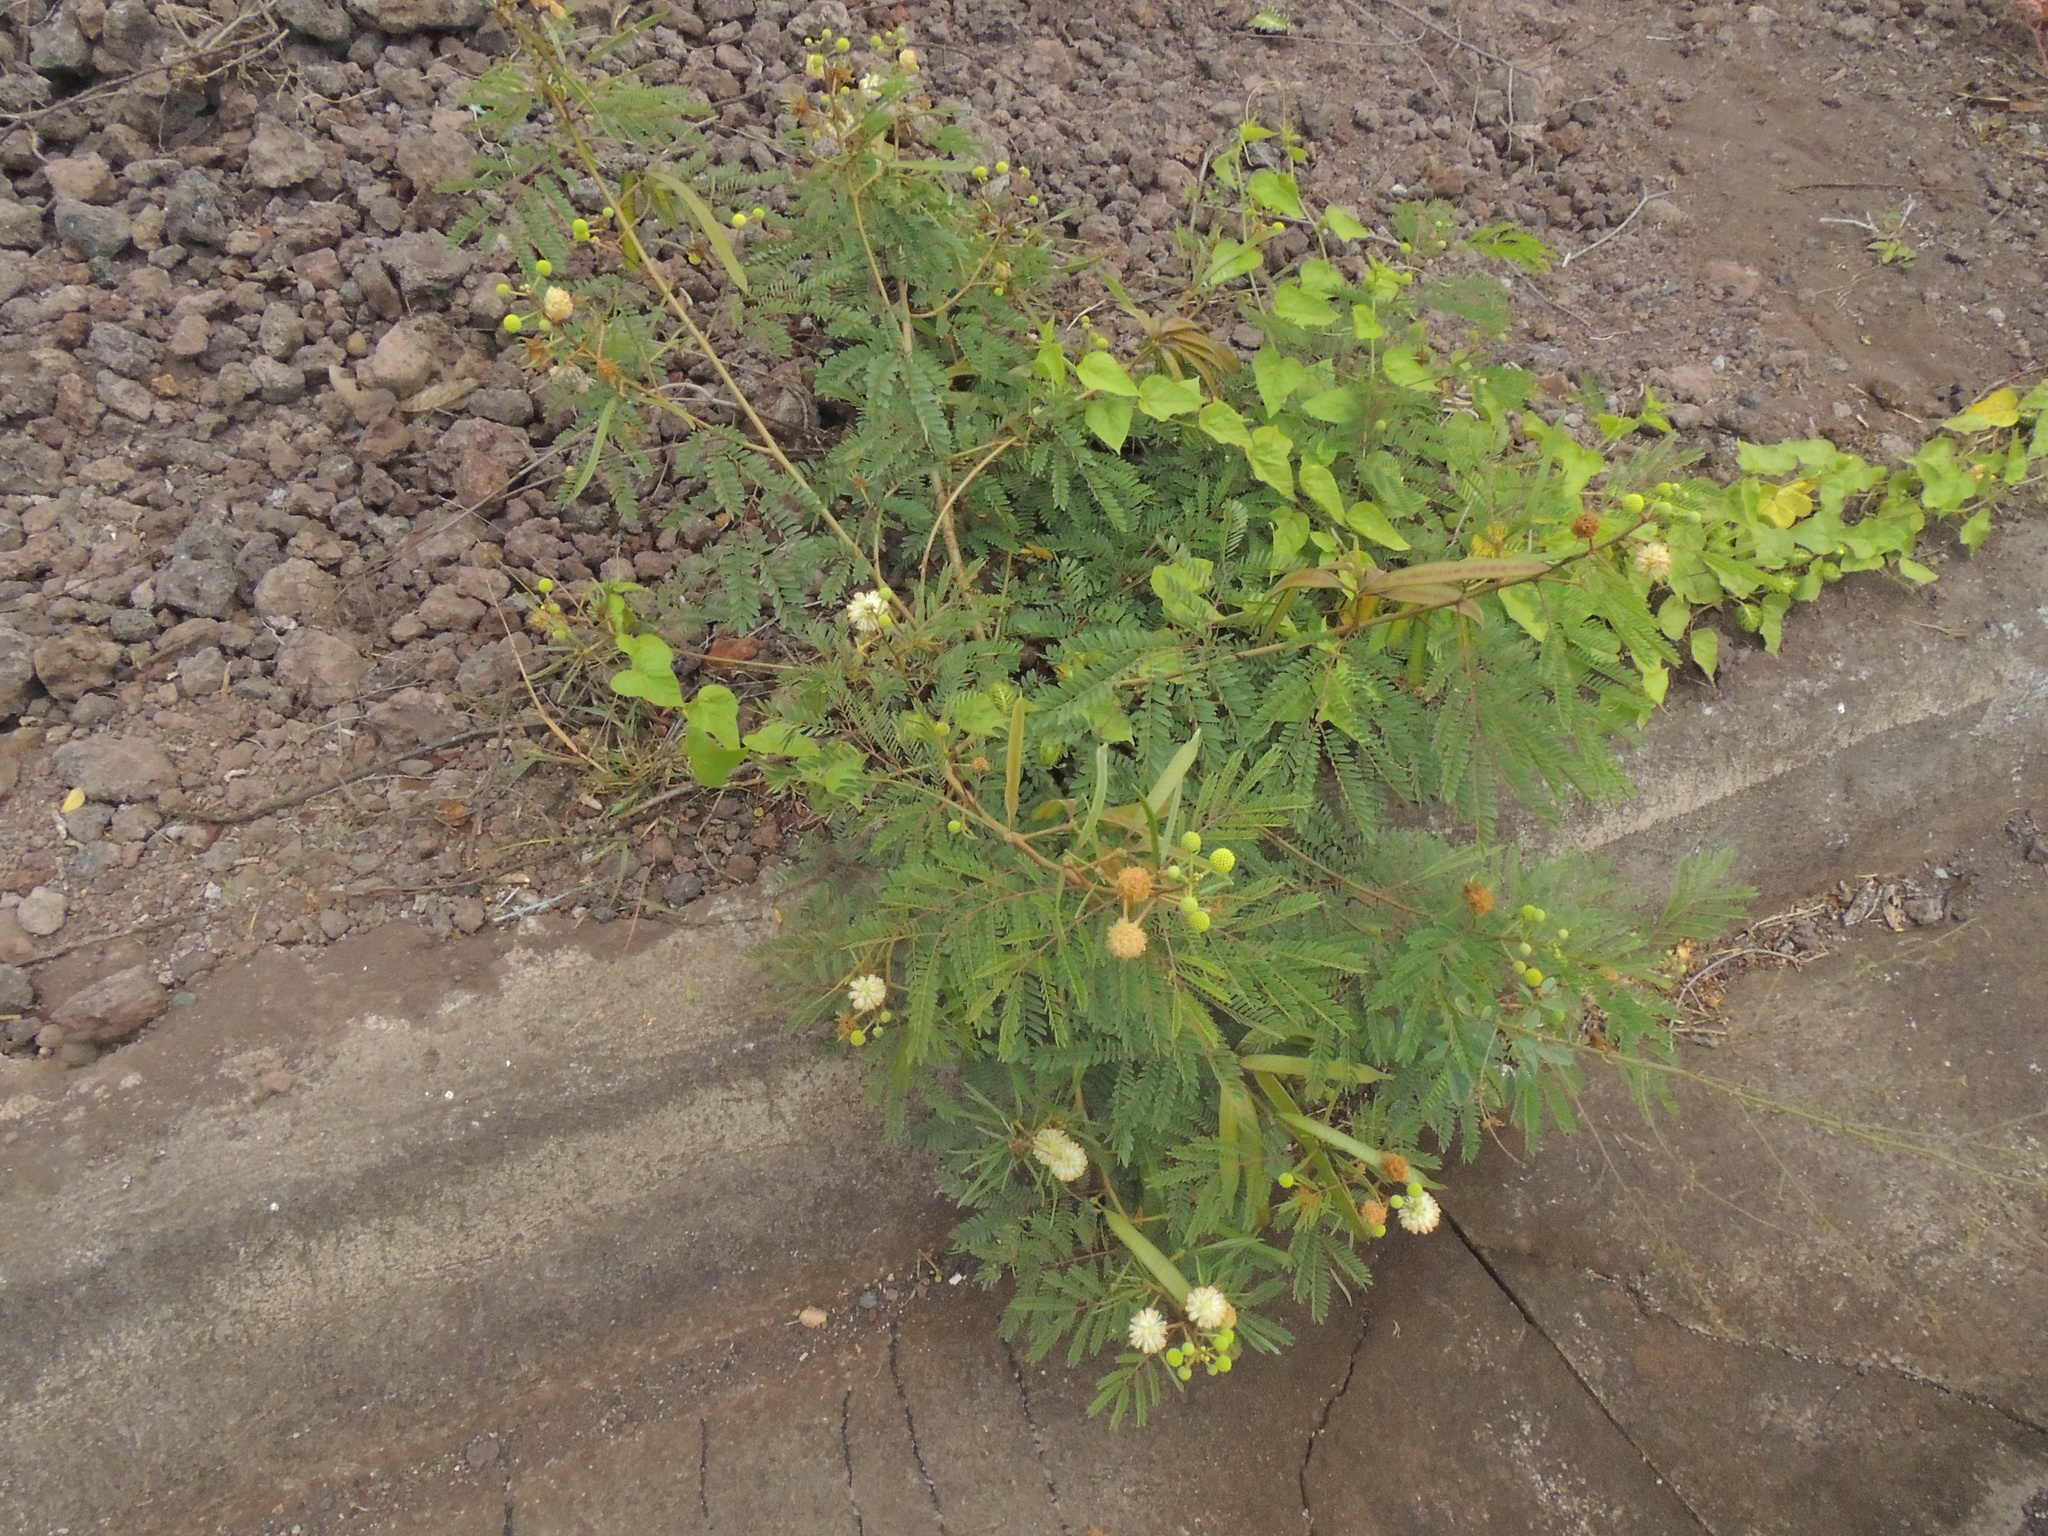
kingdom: Plantae
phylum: Tracheophyta
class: Magnoliopsida
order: Fabales
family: Fabaceae
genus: Leucaena
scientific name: Leucaena leucocephala
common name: White leadtree
